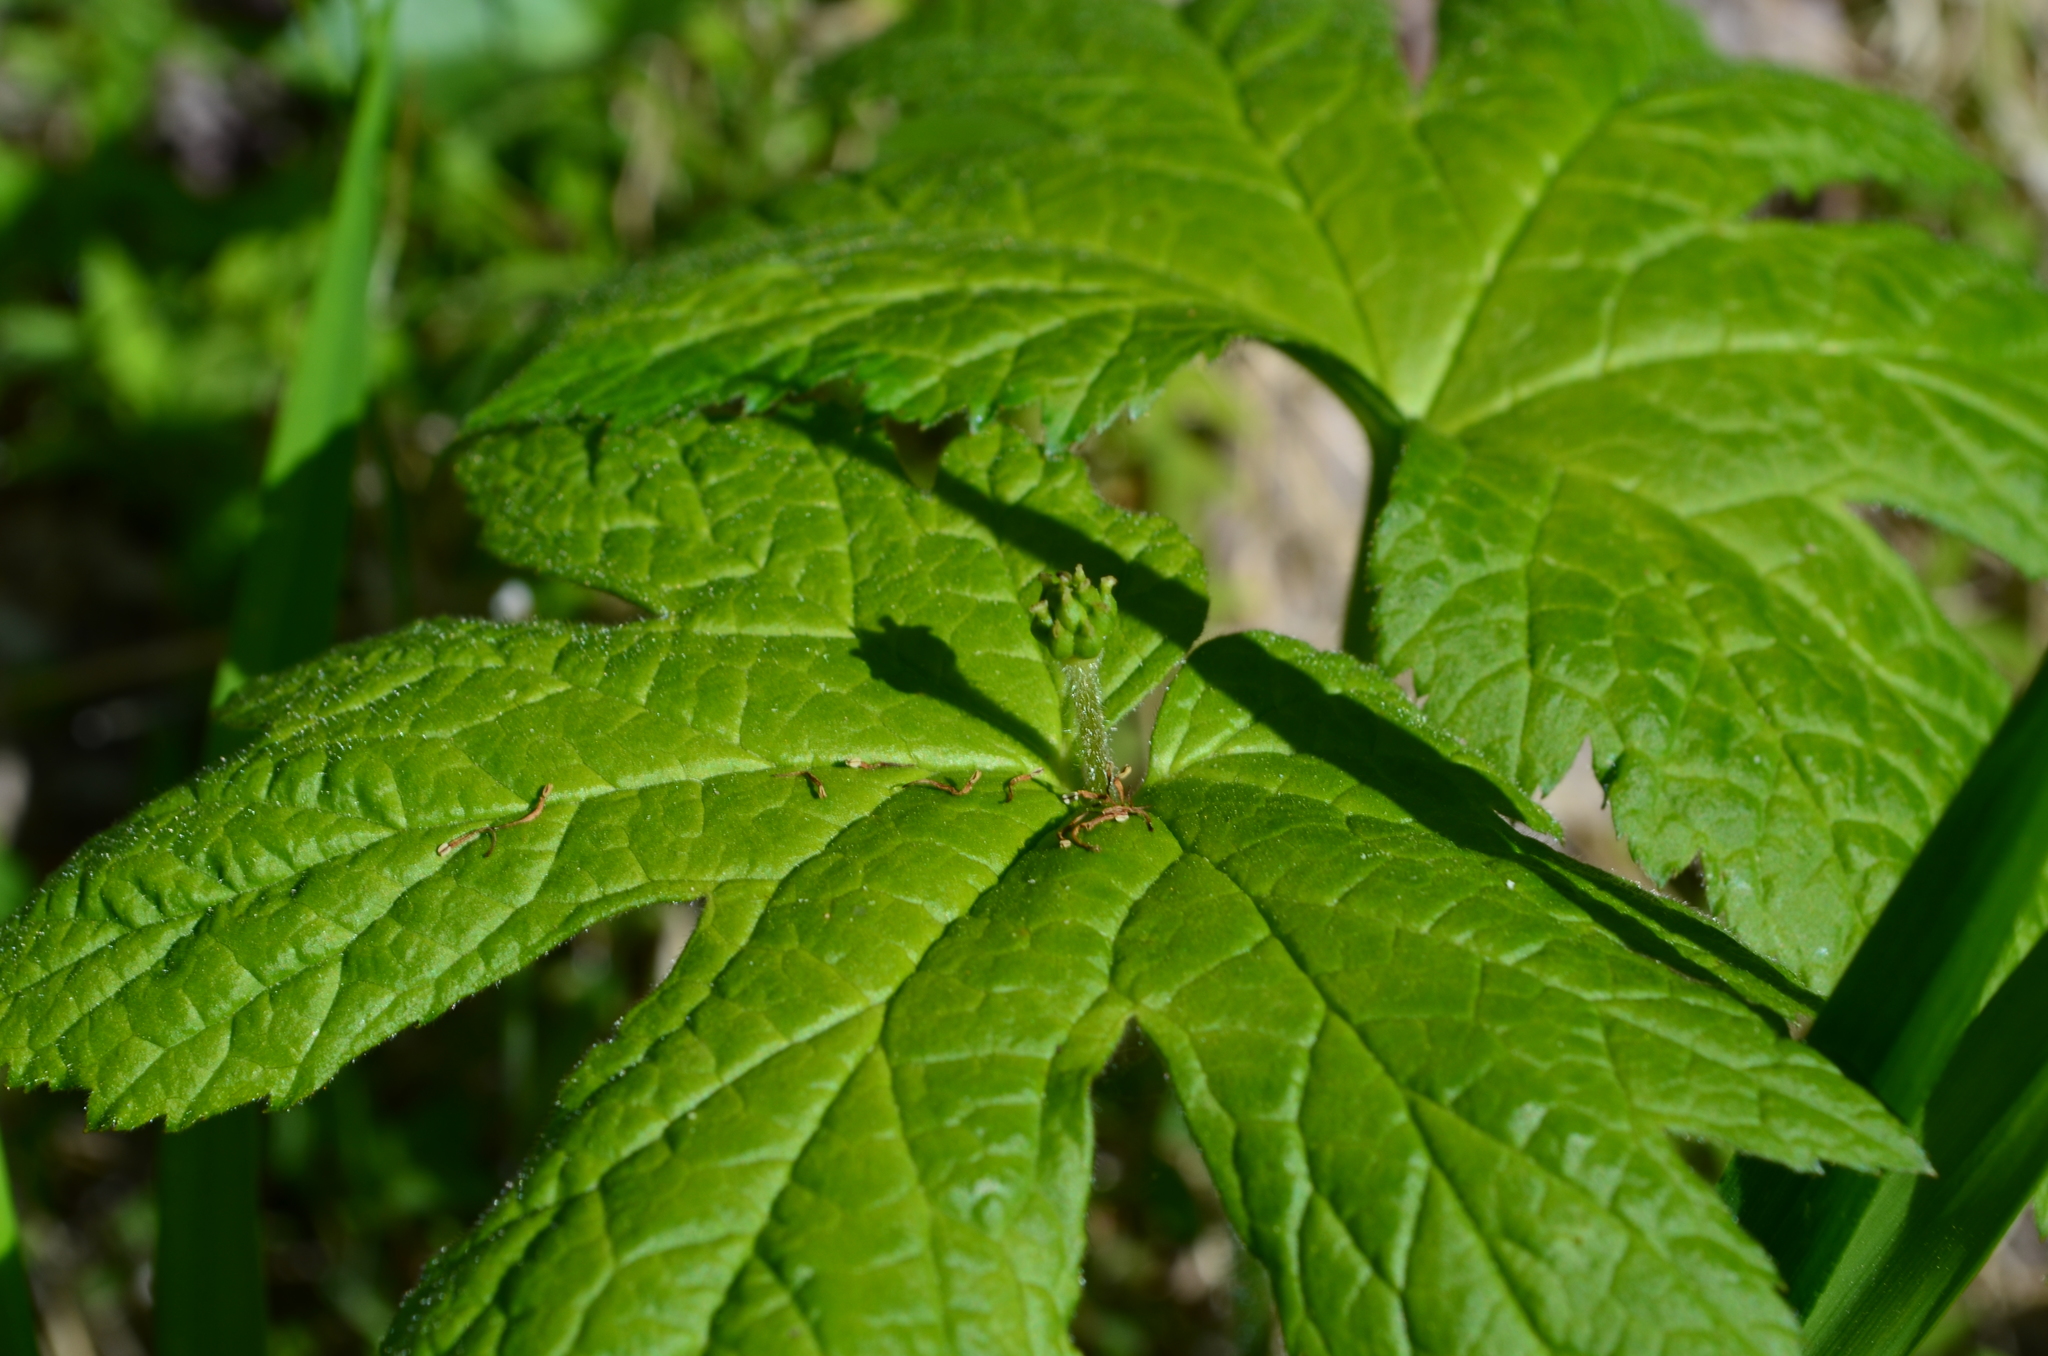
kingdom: Plantae
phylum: Tracheophyta
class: Magnoliopsida
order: Ranunculales
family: Ranunculaceae
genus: Hydrastis
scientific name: Hydrastis canadensis
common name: Goldenseal
